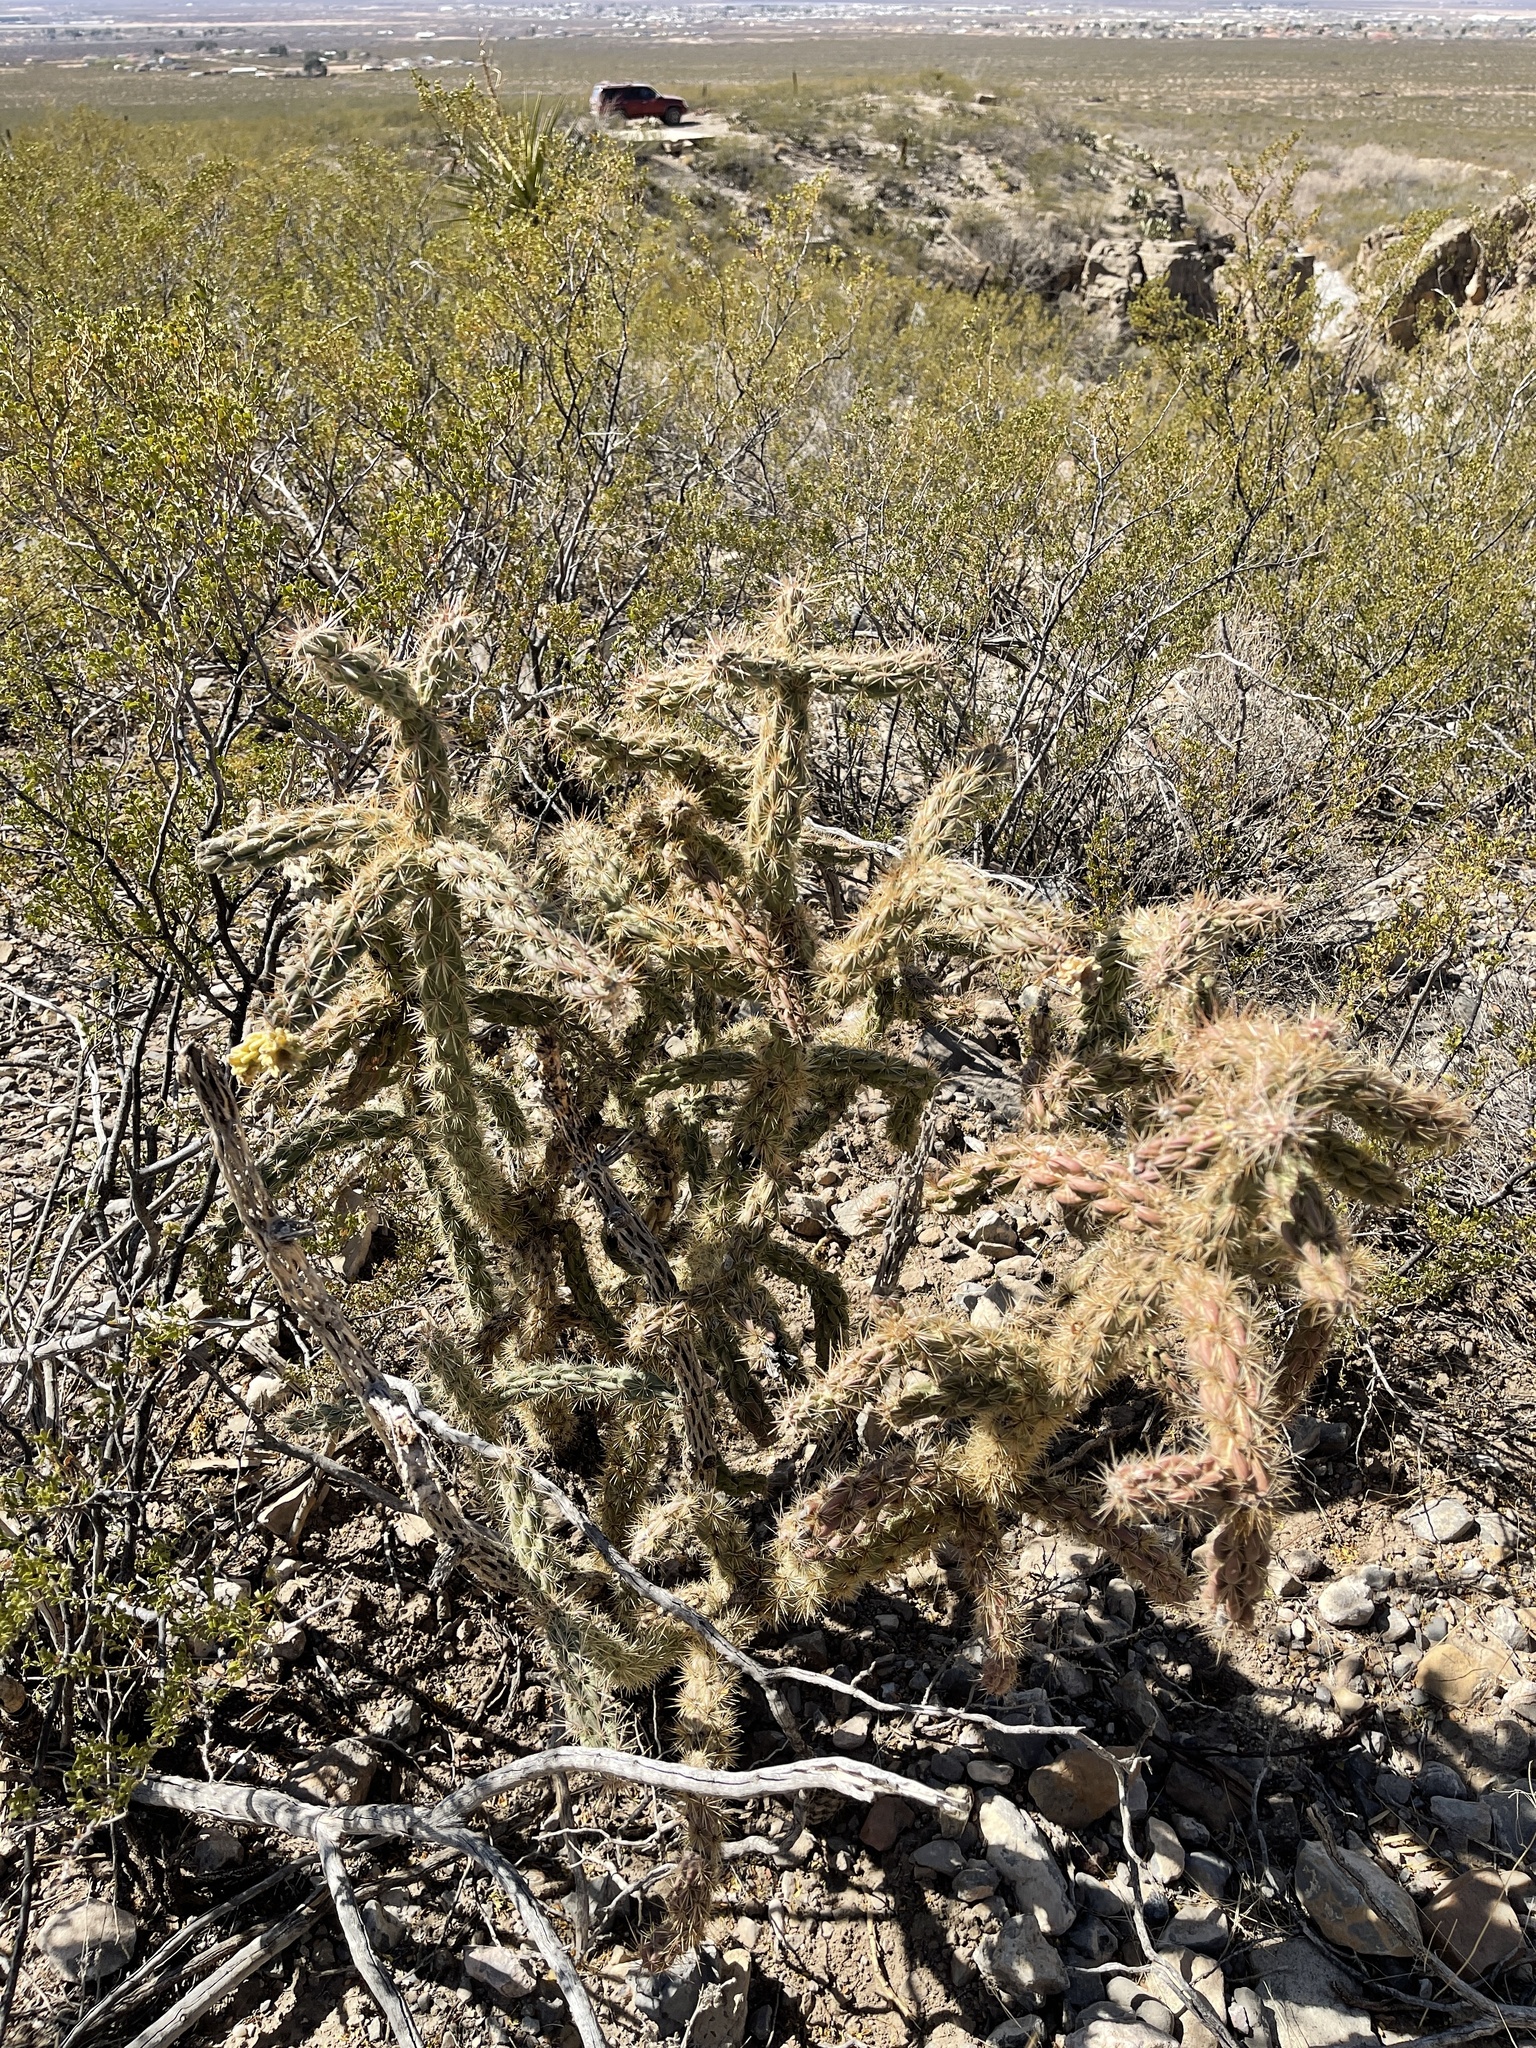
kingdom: Plantae
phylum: Tracheophyta
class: Magnoliopsida
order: Caryophyllales
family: Cactaceae
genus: Cylindropuntia
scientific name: Cylindropuntia imbricata
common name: Candelabrum cactus
